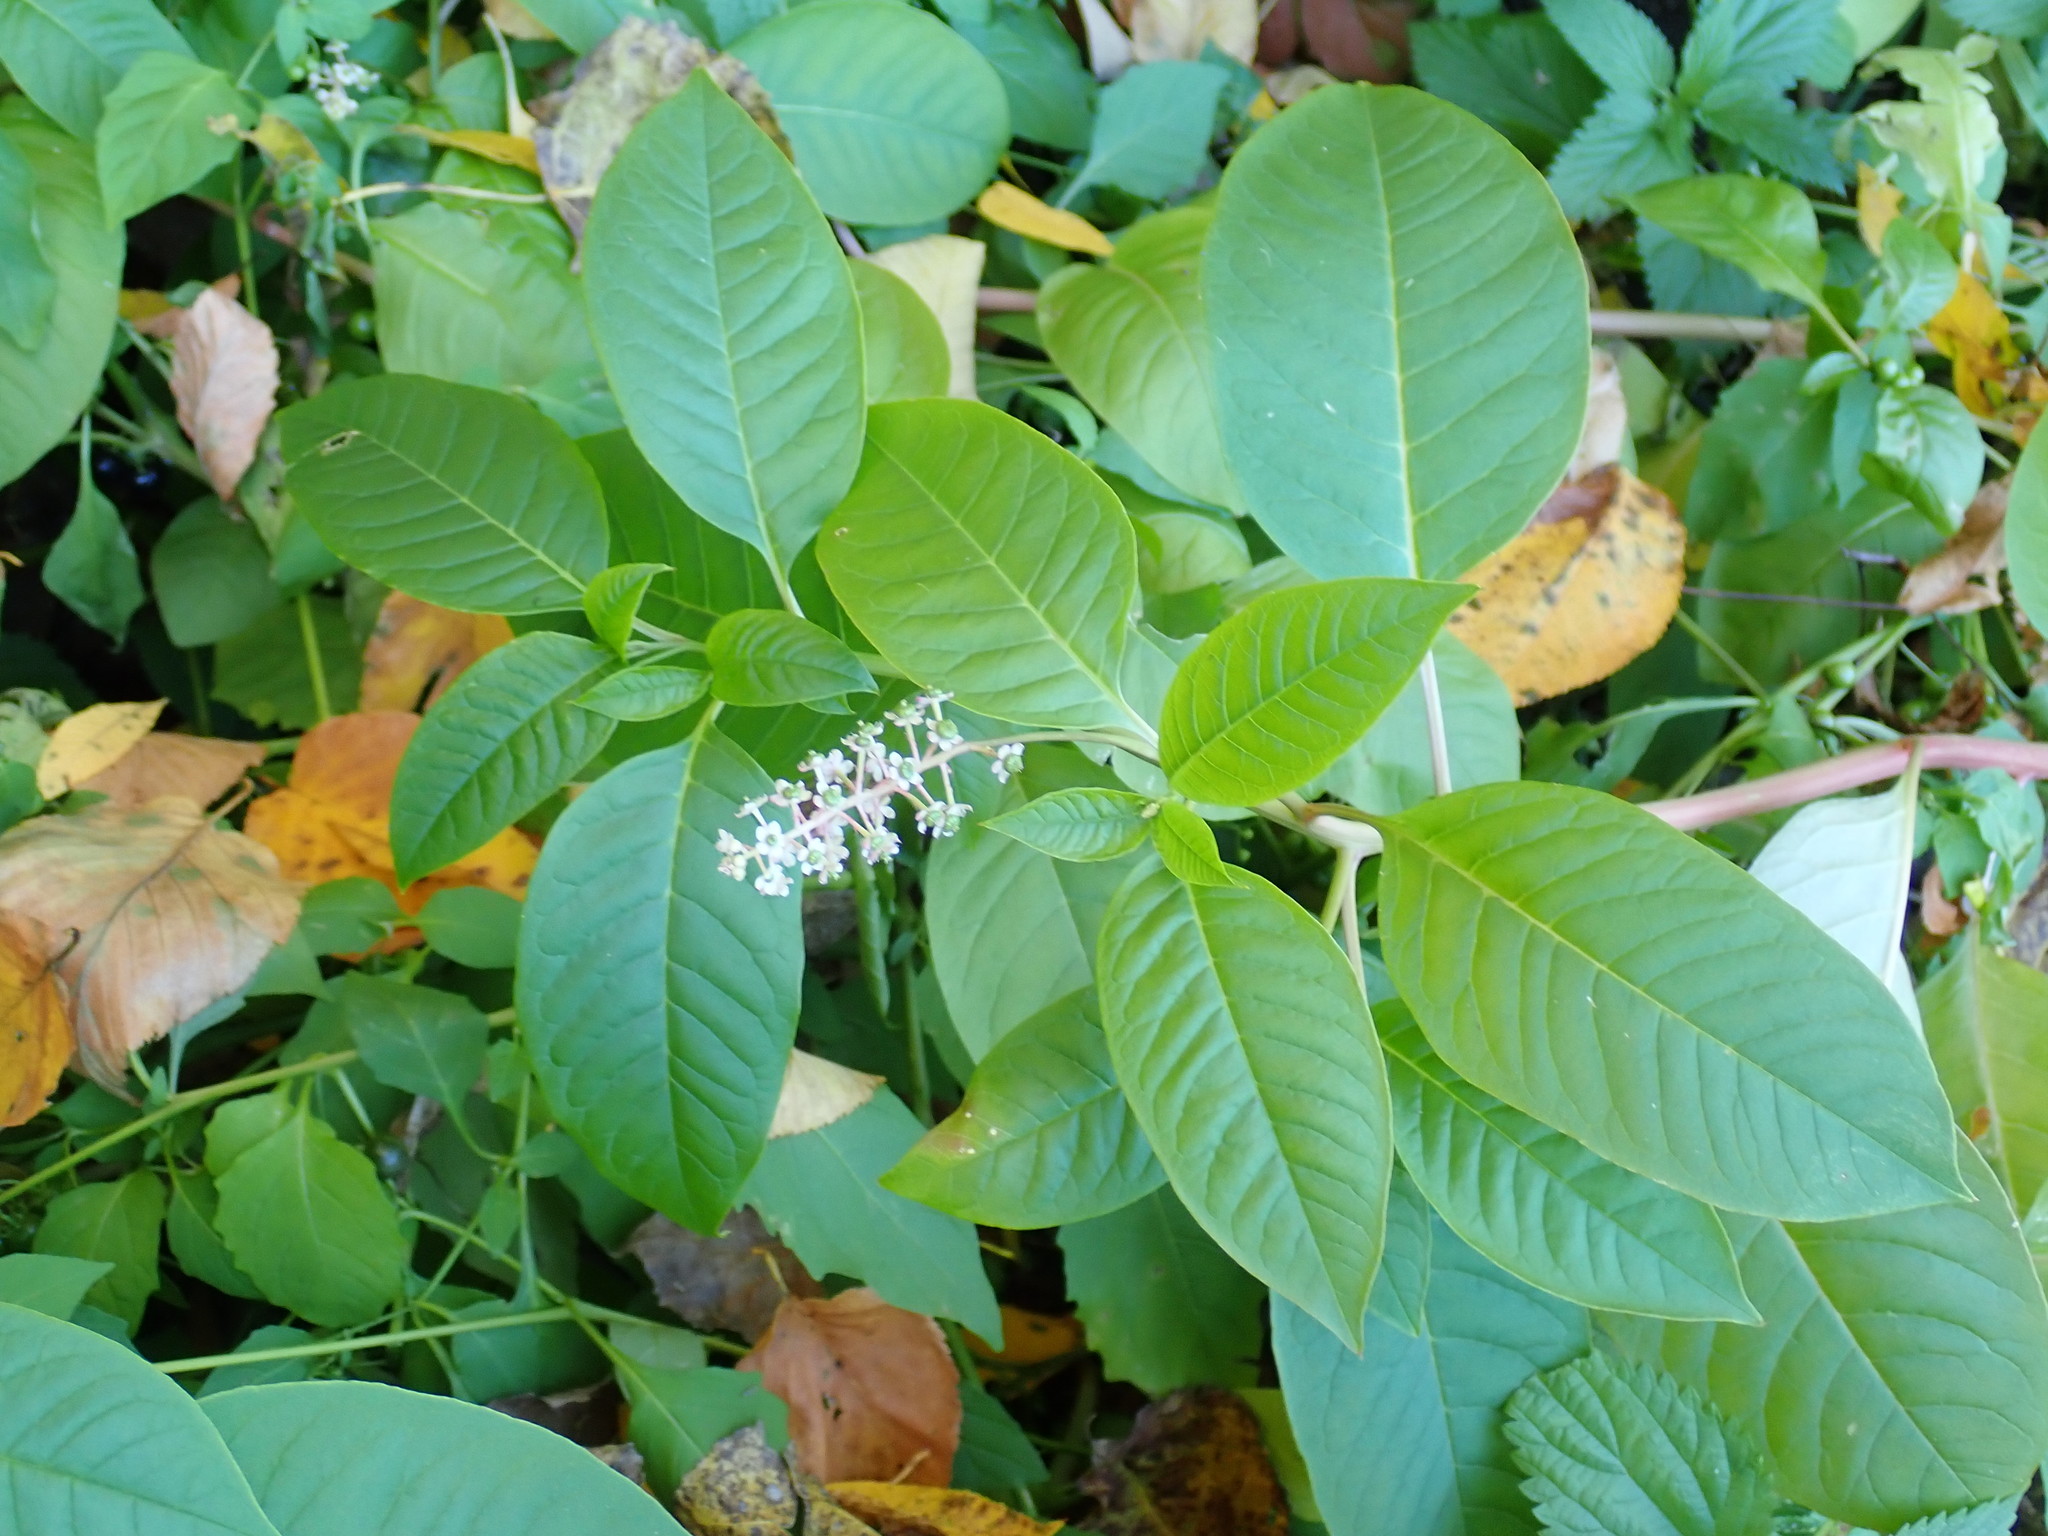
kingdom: Plantae
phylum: Tracheophyta
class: Magnoliopsida
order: Caryophyllales
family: Phytolaccaceae
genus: Phytolacca
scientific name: Phytolacca americana
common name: American pokeweed
